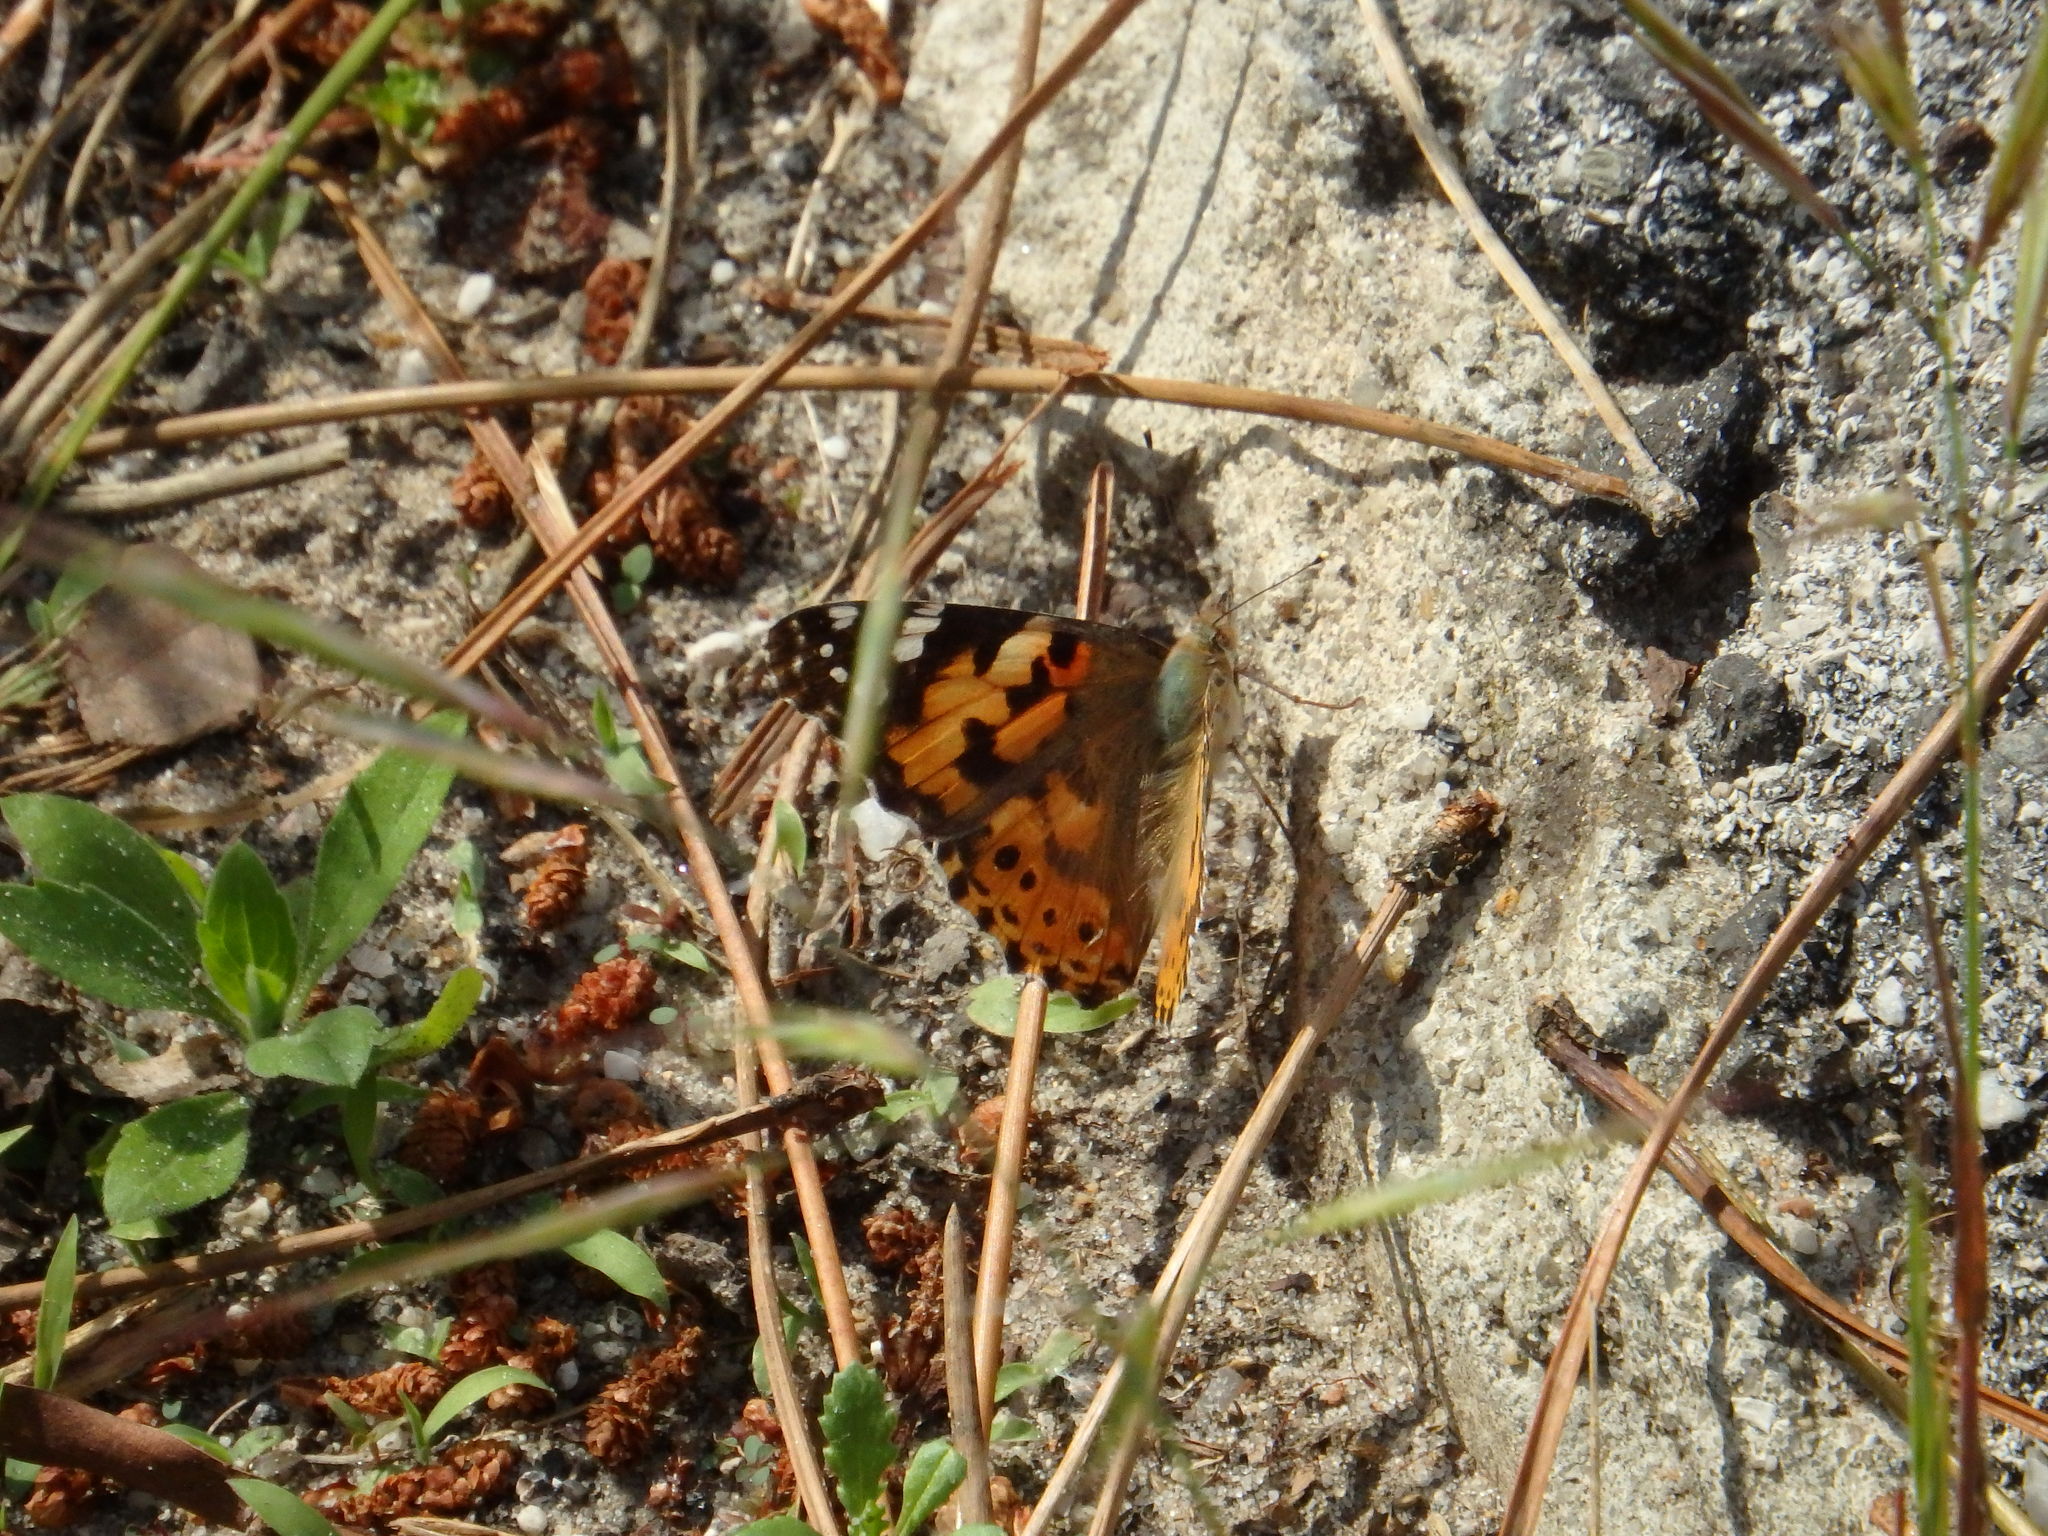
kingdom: Animalia
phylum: Arthropoda
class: Insecta
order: Lepidoptera
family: Nymphalidae
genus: Vanessa
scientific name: Vanessa cardui
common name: Painted lady
